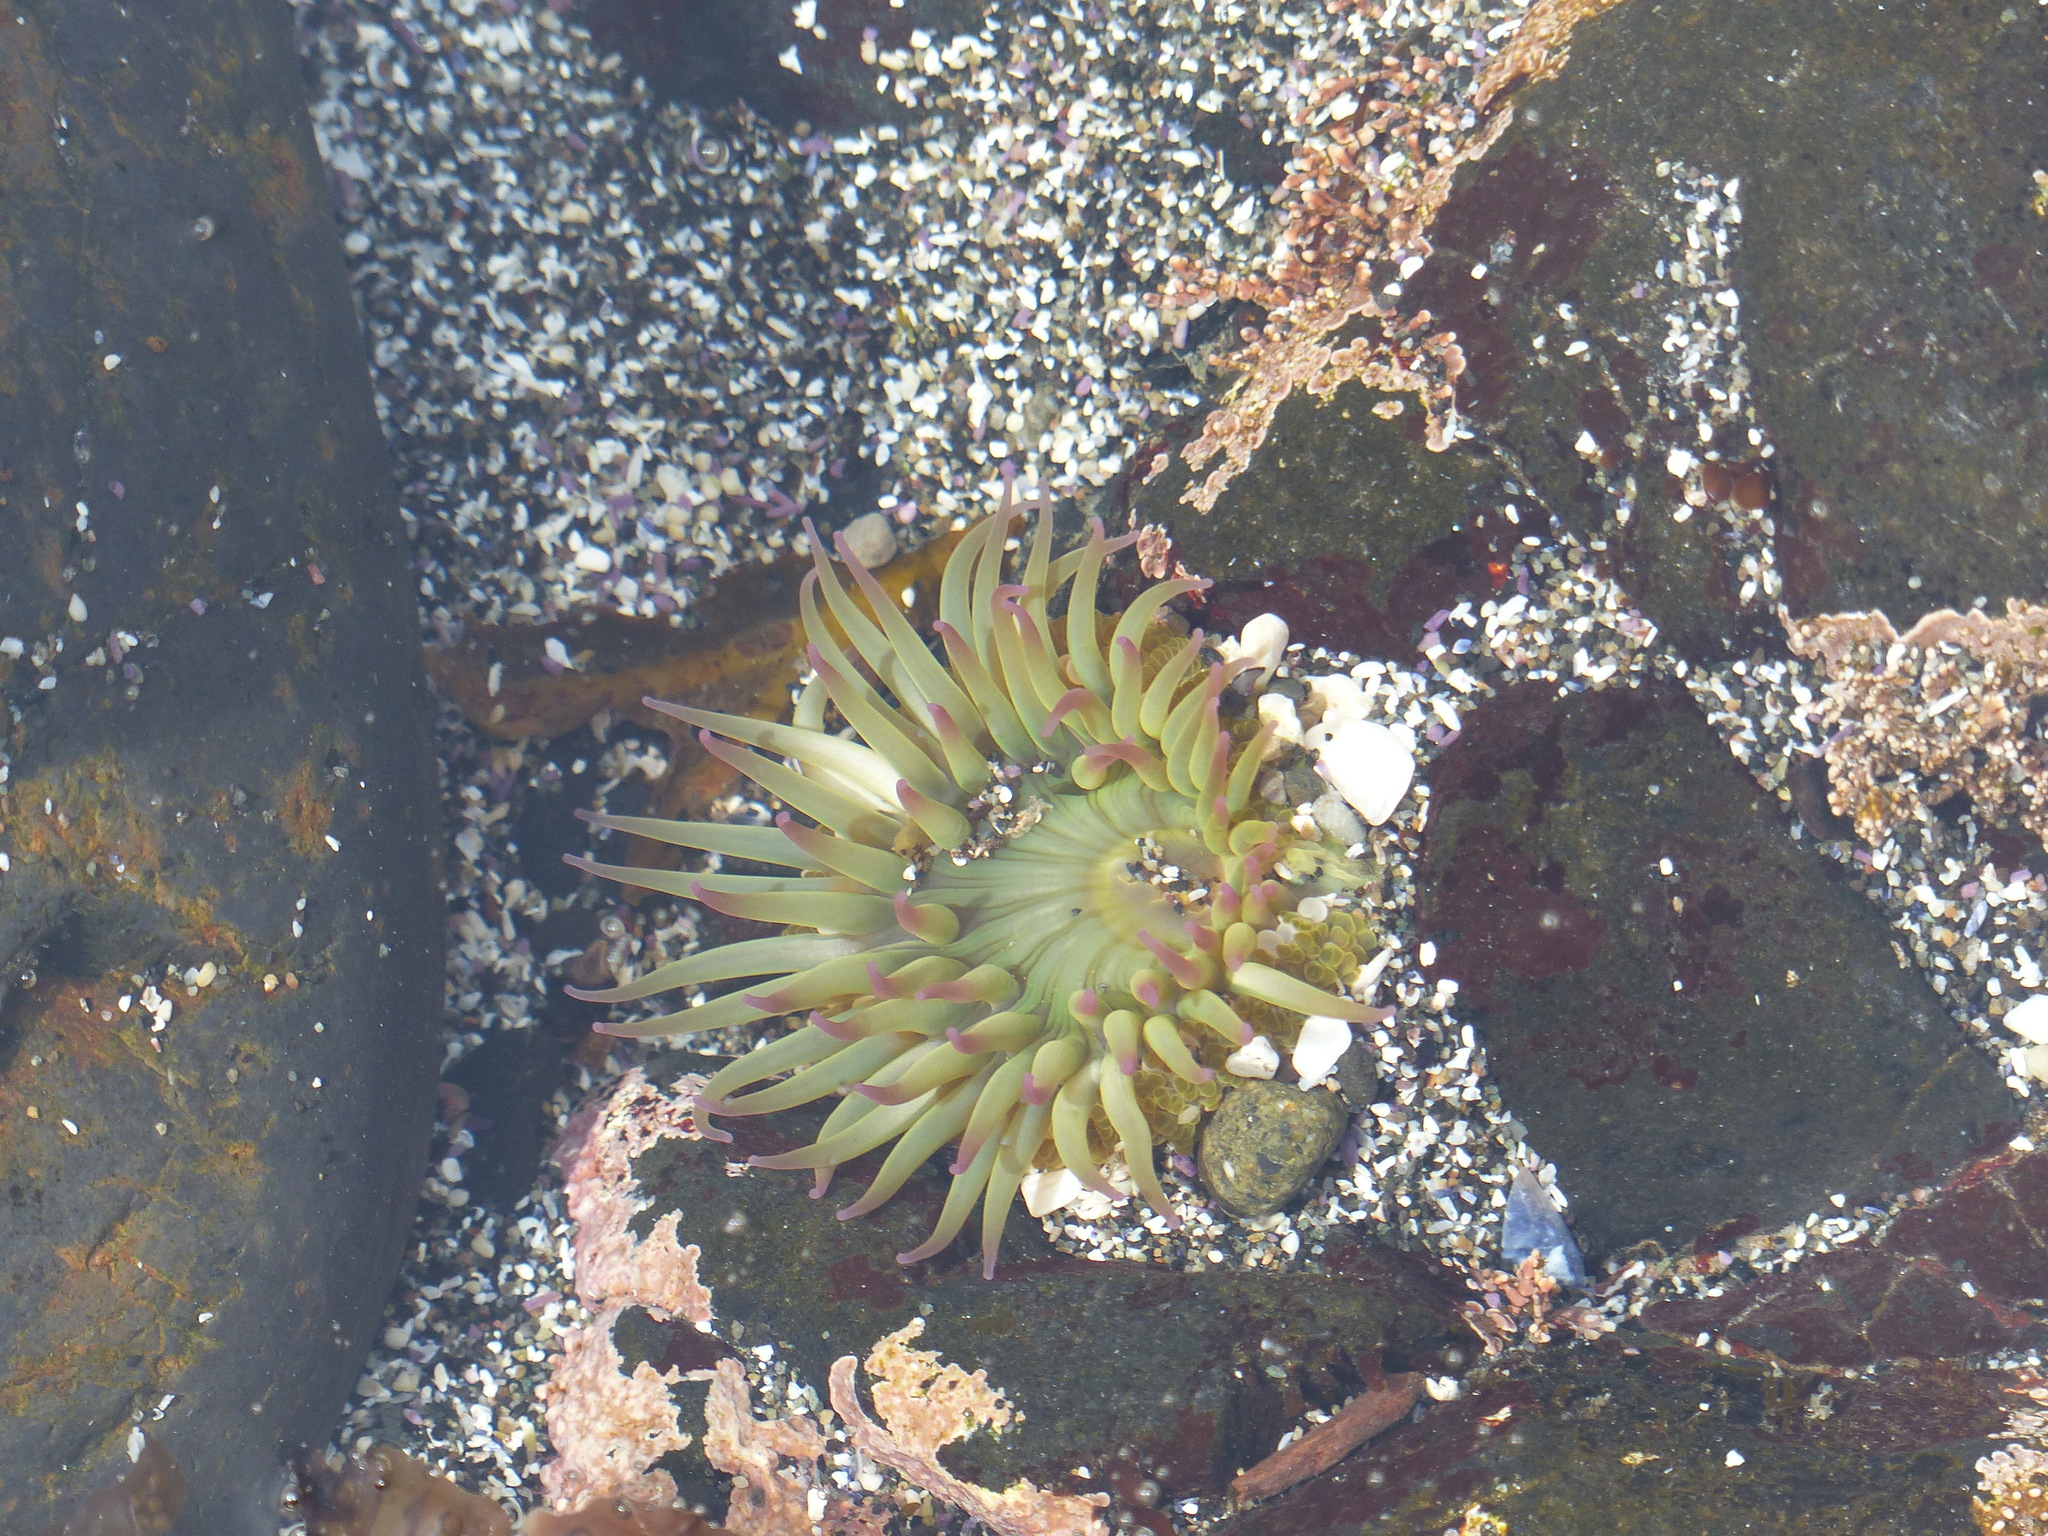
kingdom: Animalia
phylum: Cnidaria
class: Anthozoa
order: Actiniaria
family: Actiniidae
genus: Anthopleura
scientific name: Anthopleura elegantissima
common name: Clonal anemone
